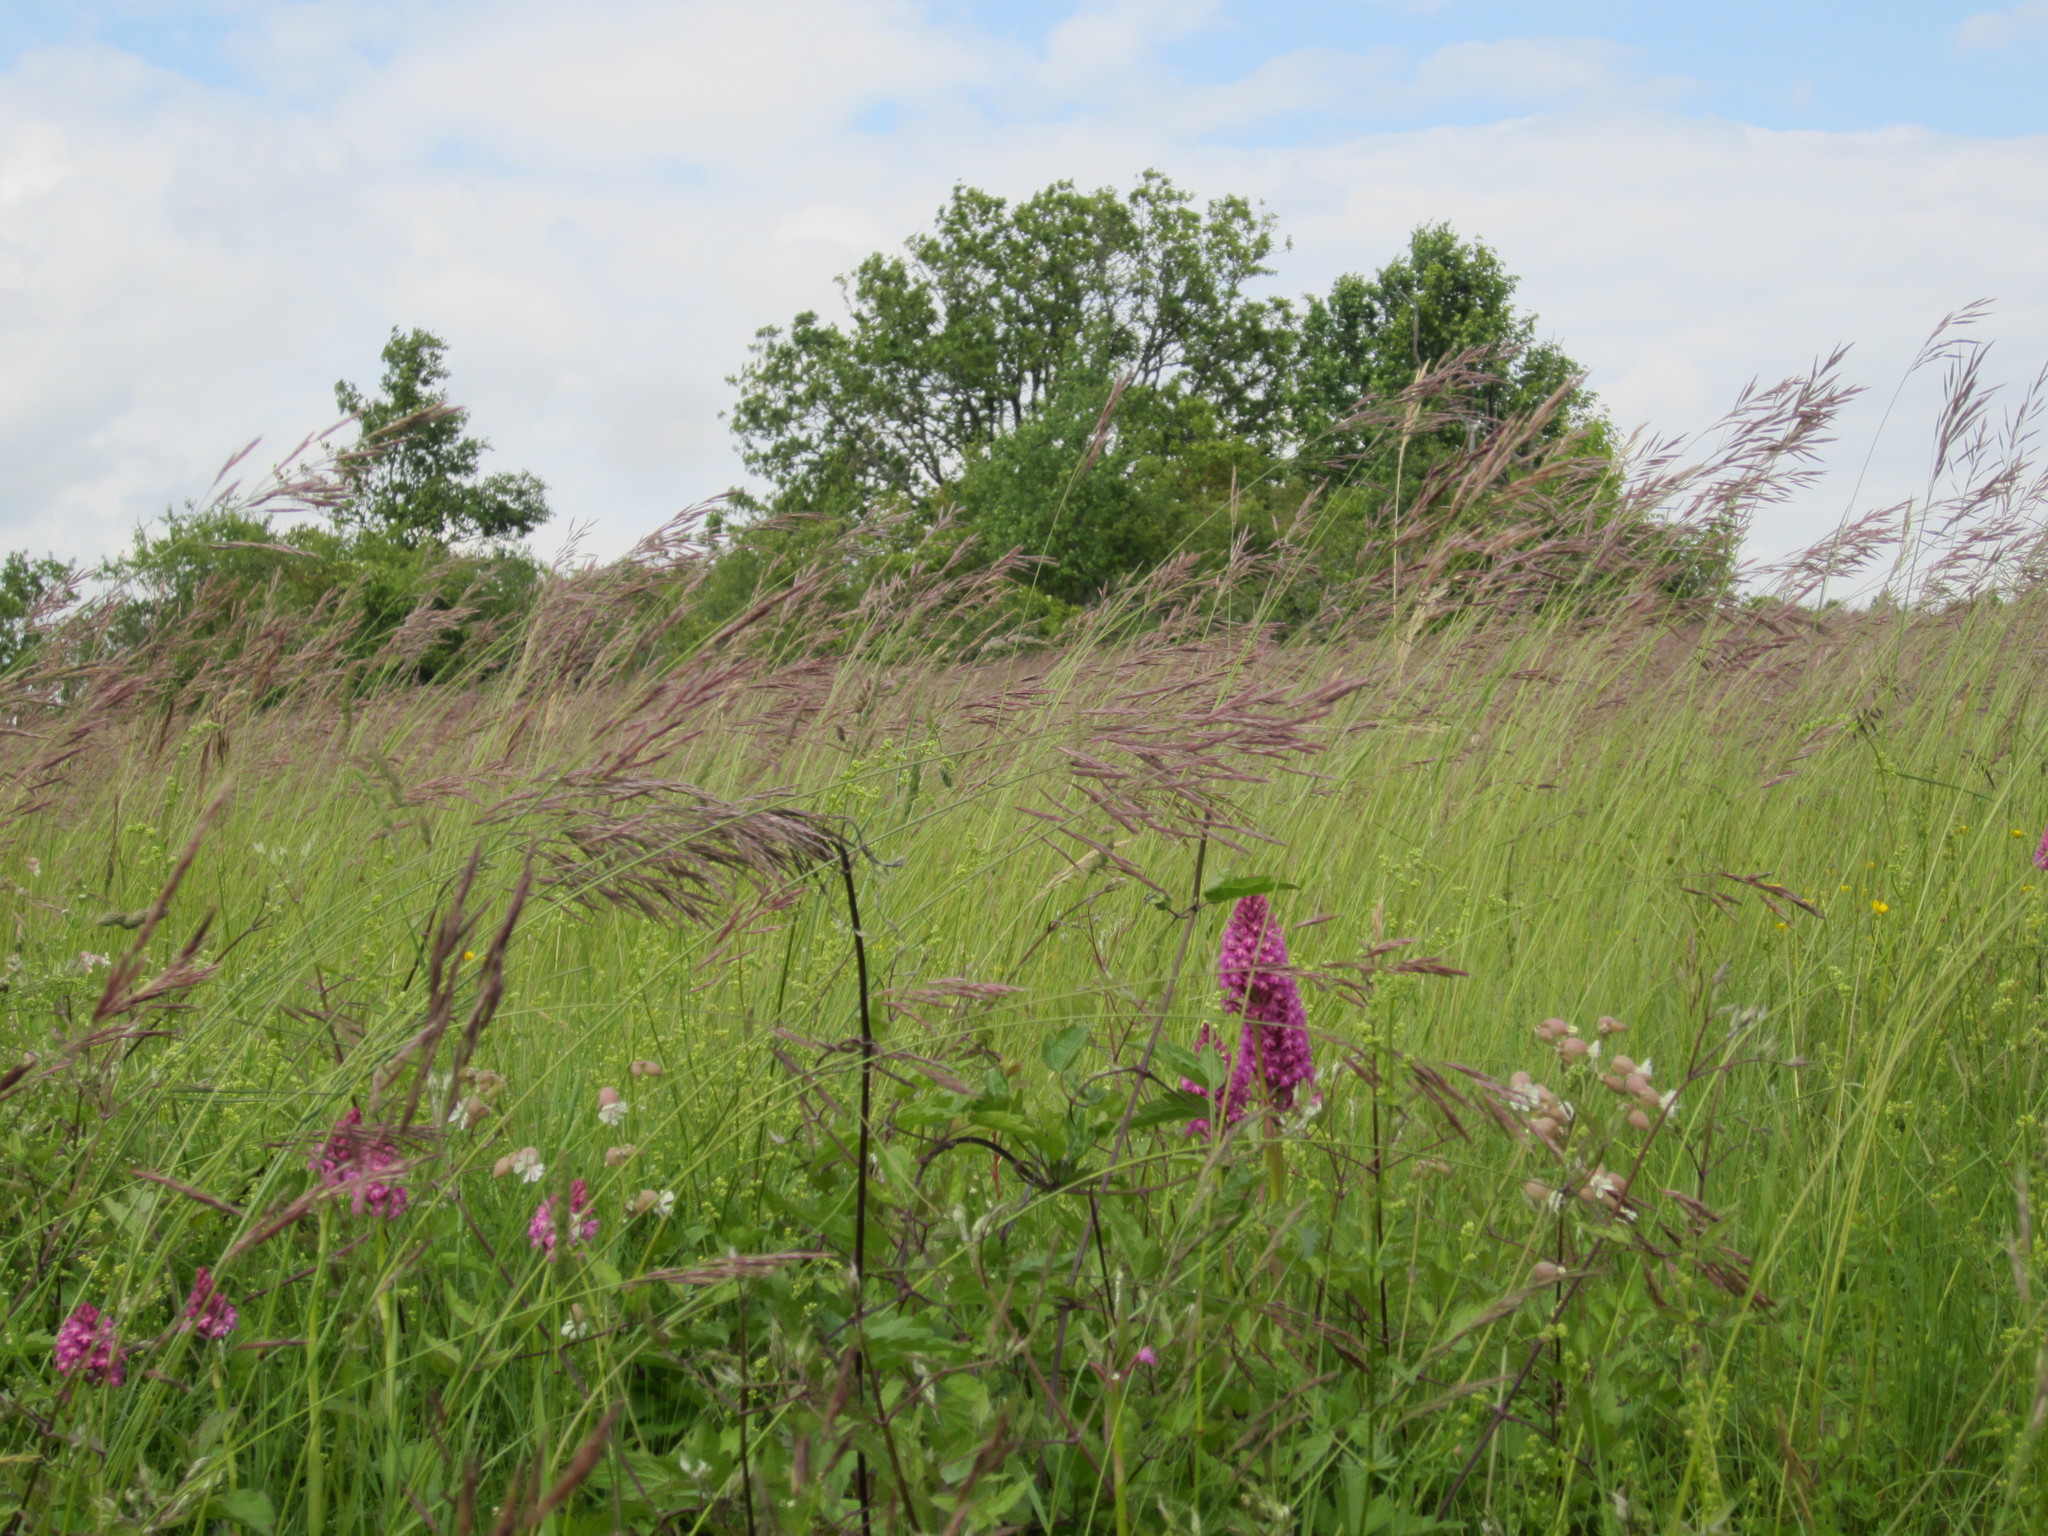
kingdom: Plantae
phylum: Tracheophyta
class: Liliopsida
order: Asparagales
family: Orchidaceae
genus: Anacamptis
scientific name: Anacamptis pyramidalis
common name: Pyramidal orchid
